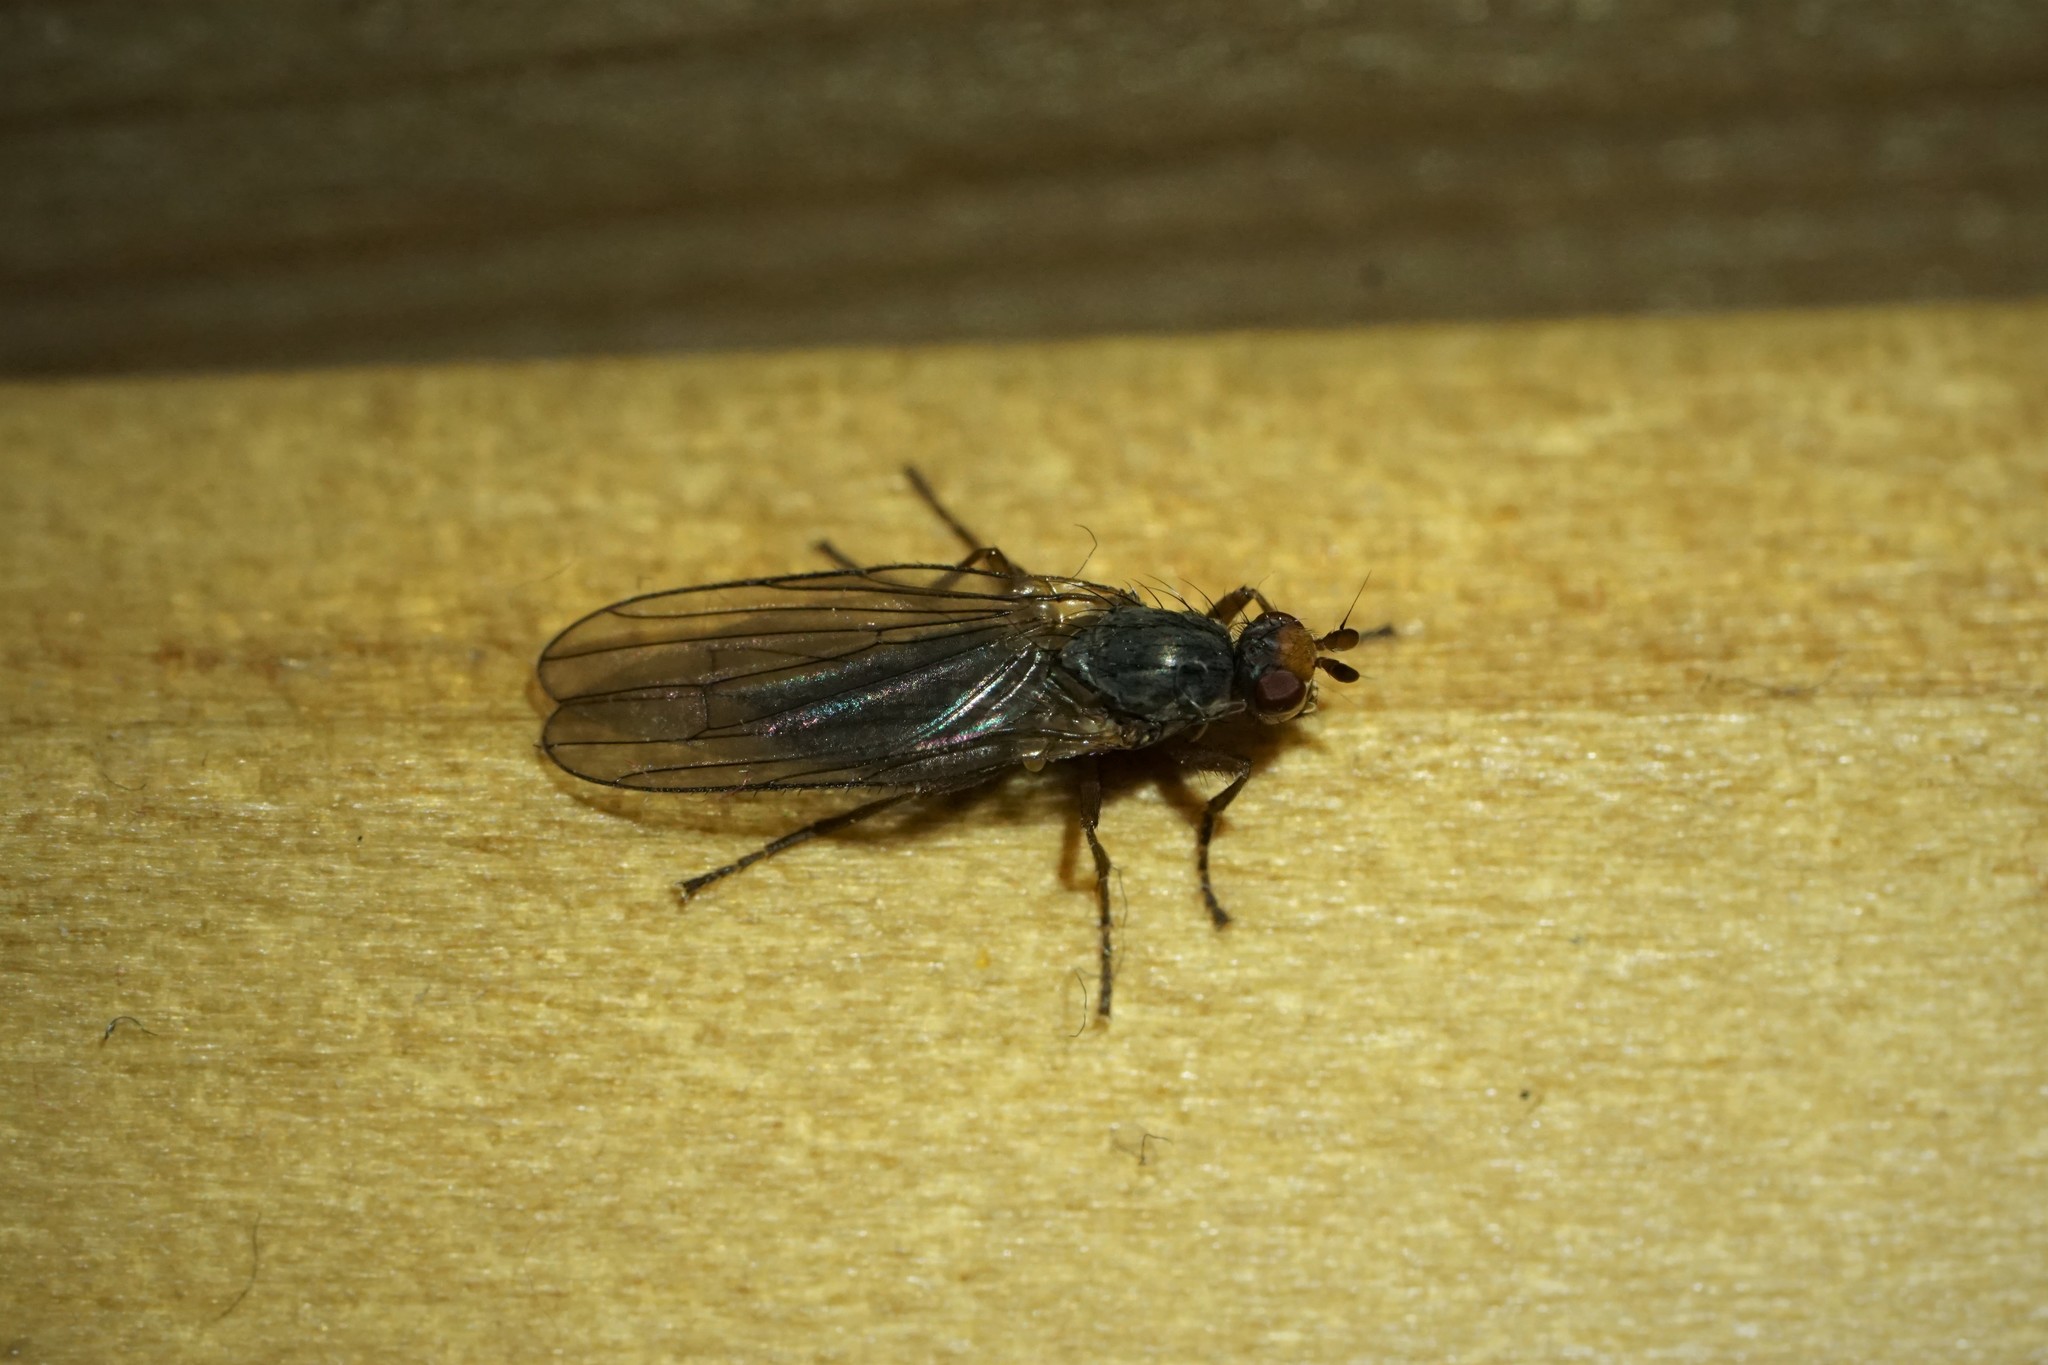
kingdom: Animalia
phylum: Arthropoda
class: Insecta
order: Diptera
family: Heleomyzidae
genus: Orbellia
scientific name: Orbellia petersoni
